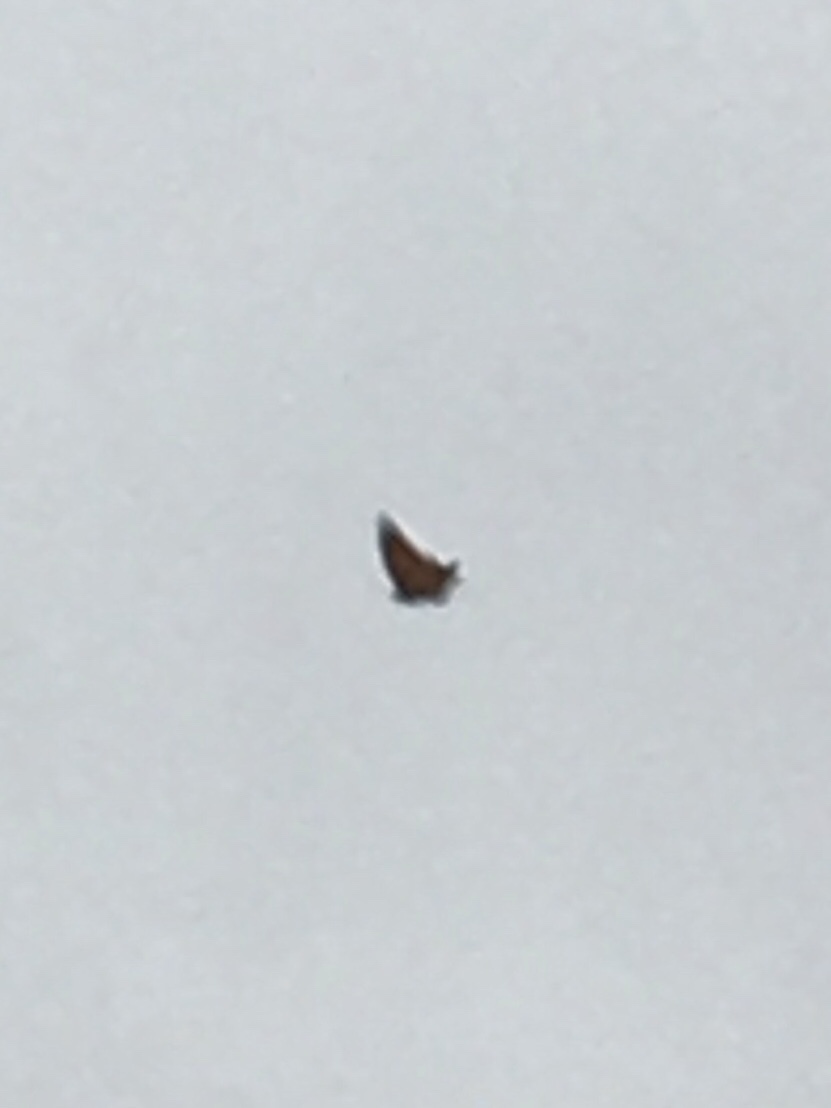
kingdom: Animalia
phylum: Arthropoda
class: Insecta
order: Lepidoptera
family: Nymphalidae
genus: Danaus
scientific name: Danaus plexippus
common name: Monarch
